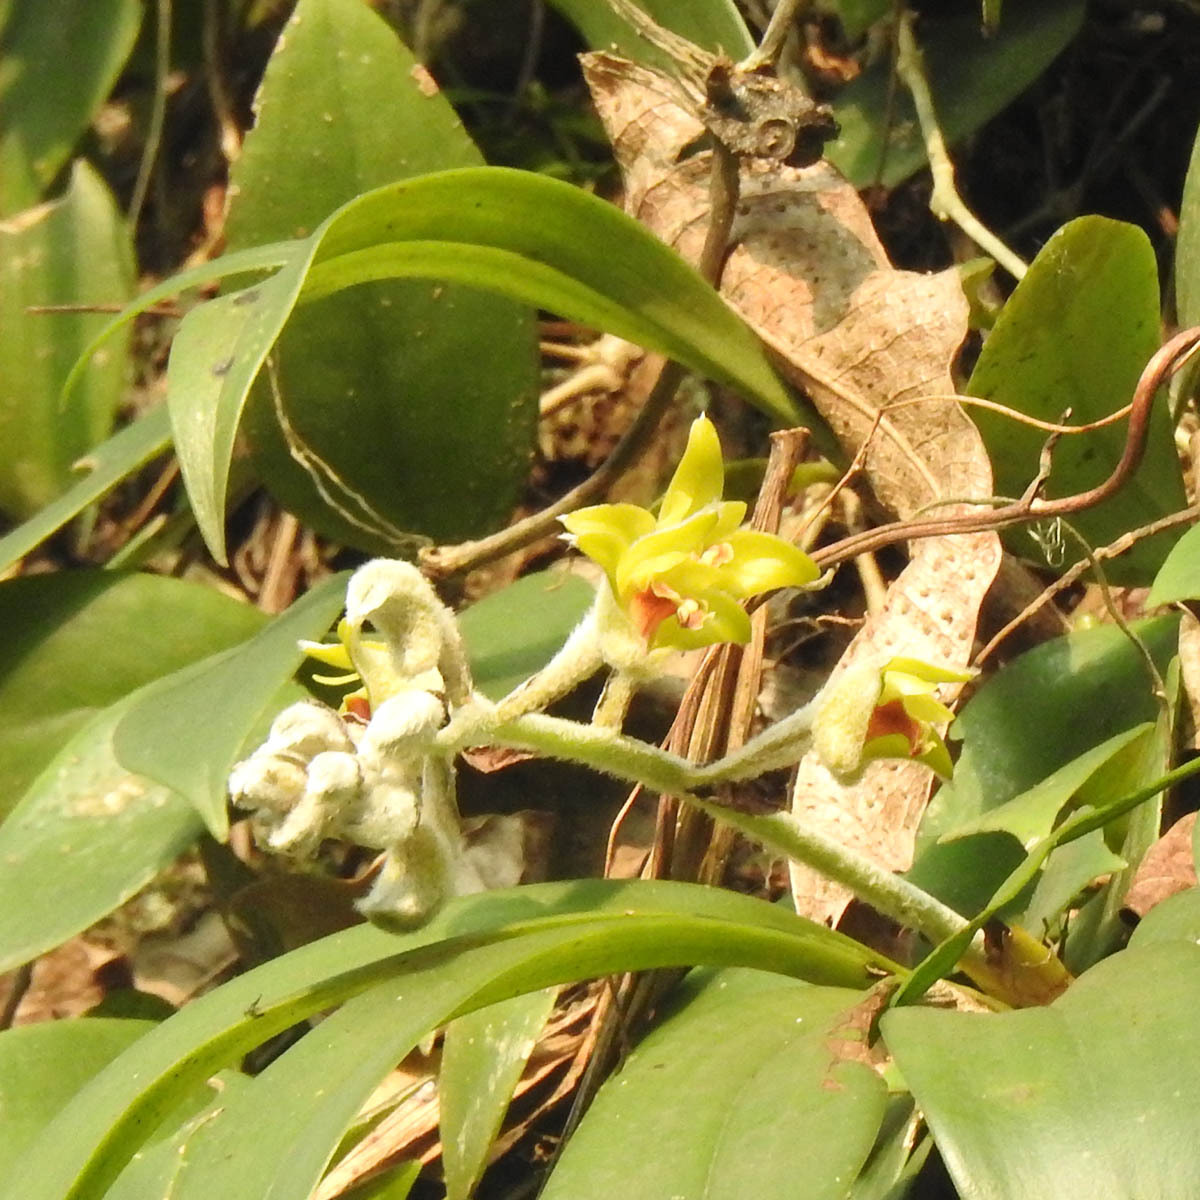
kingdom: Plantae
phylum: Tracheophyta
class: Liliopsida
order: Asparagales
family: Orchidaceae
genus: Dendrolirium
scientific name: Dendrolirium lasiopetalum
